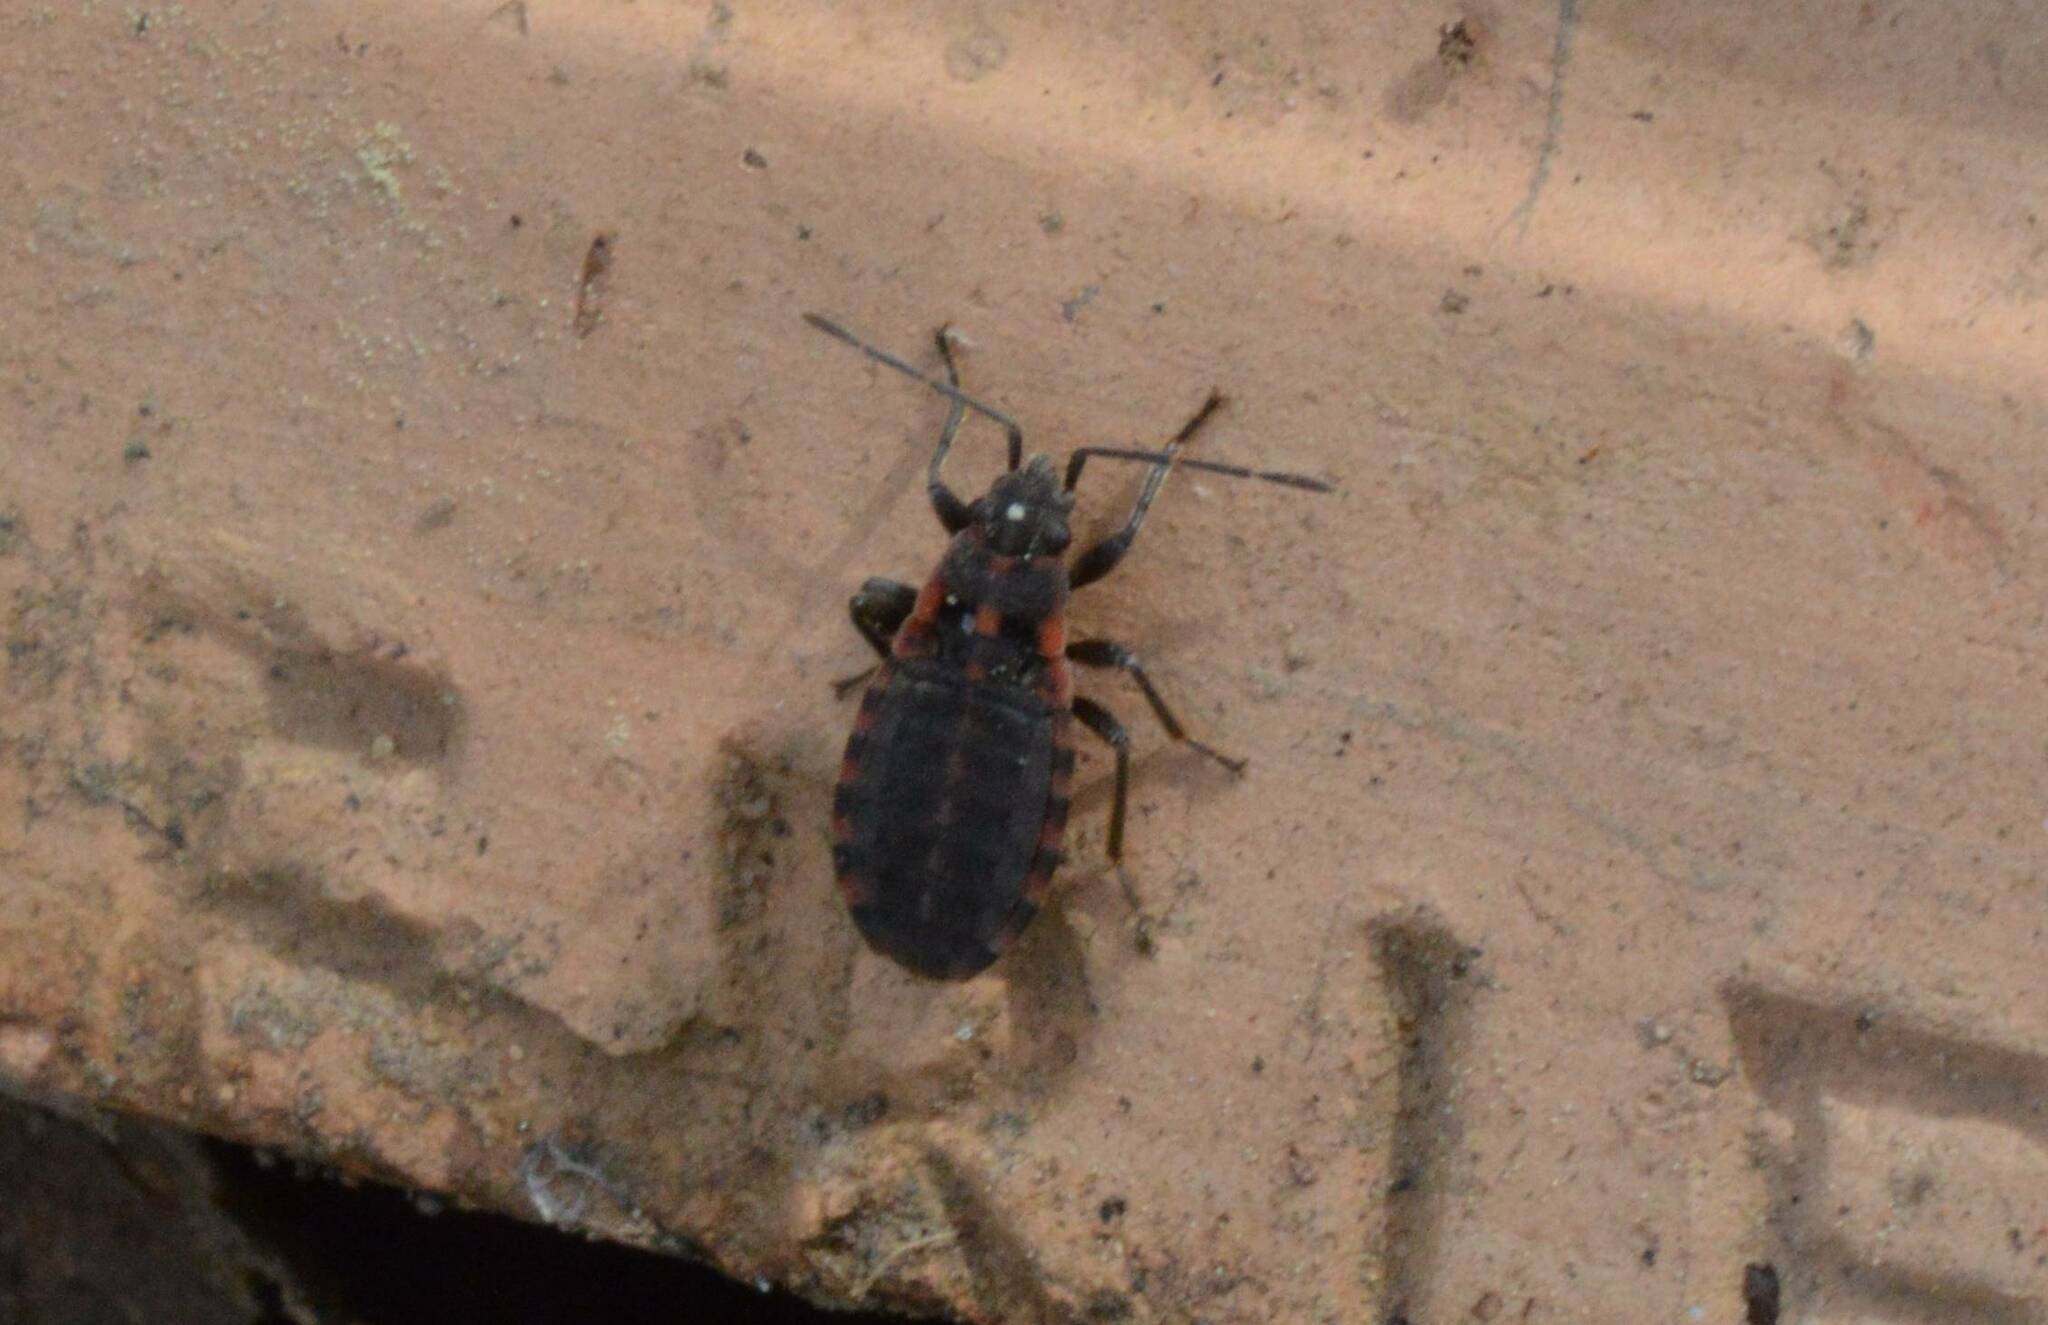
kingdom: Animalia
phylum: Arthropoda
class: Insecta
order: Hemiptera
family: Lygaeidae
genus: Apterola
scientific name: Apterola kunckeli
